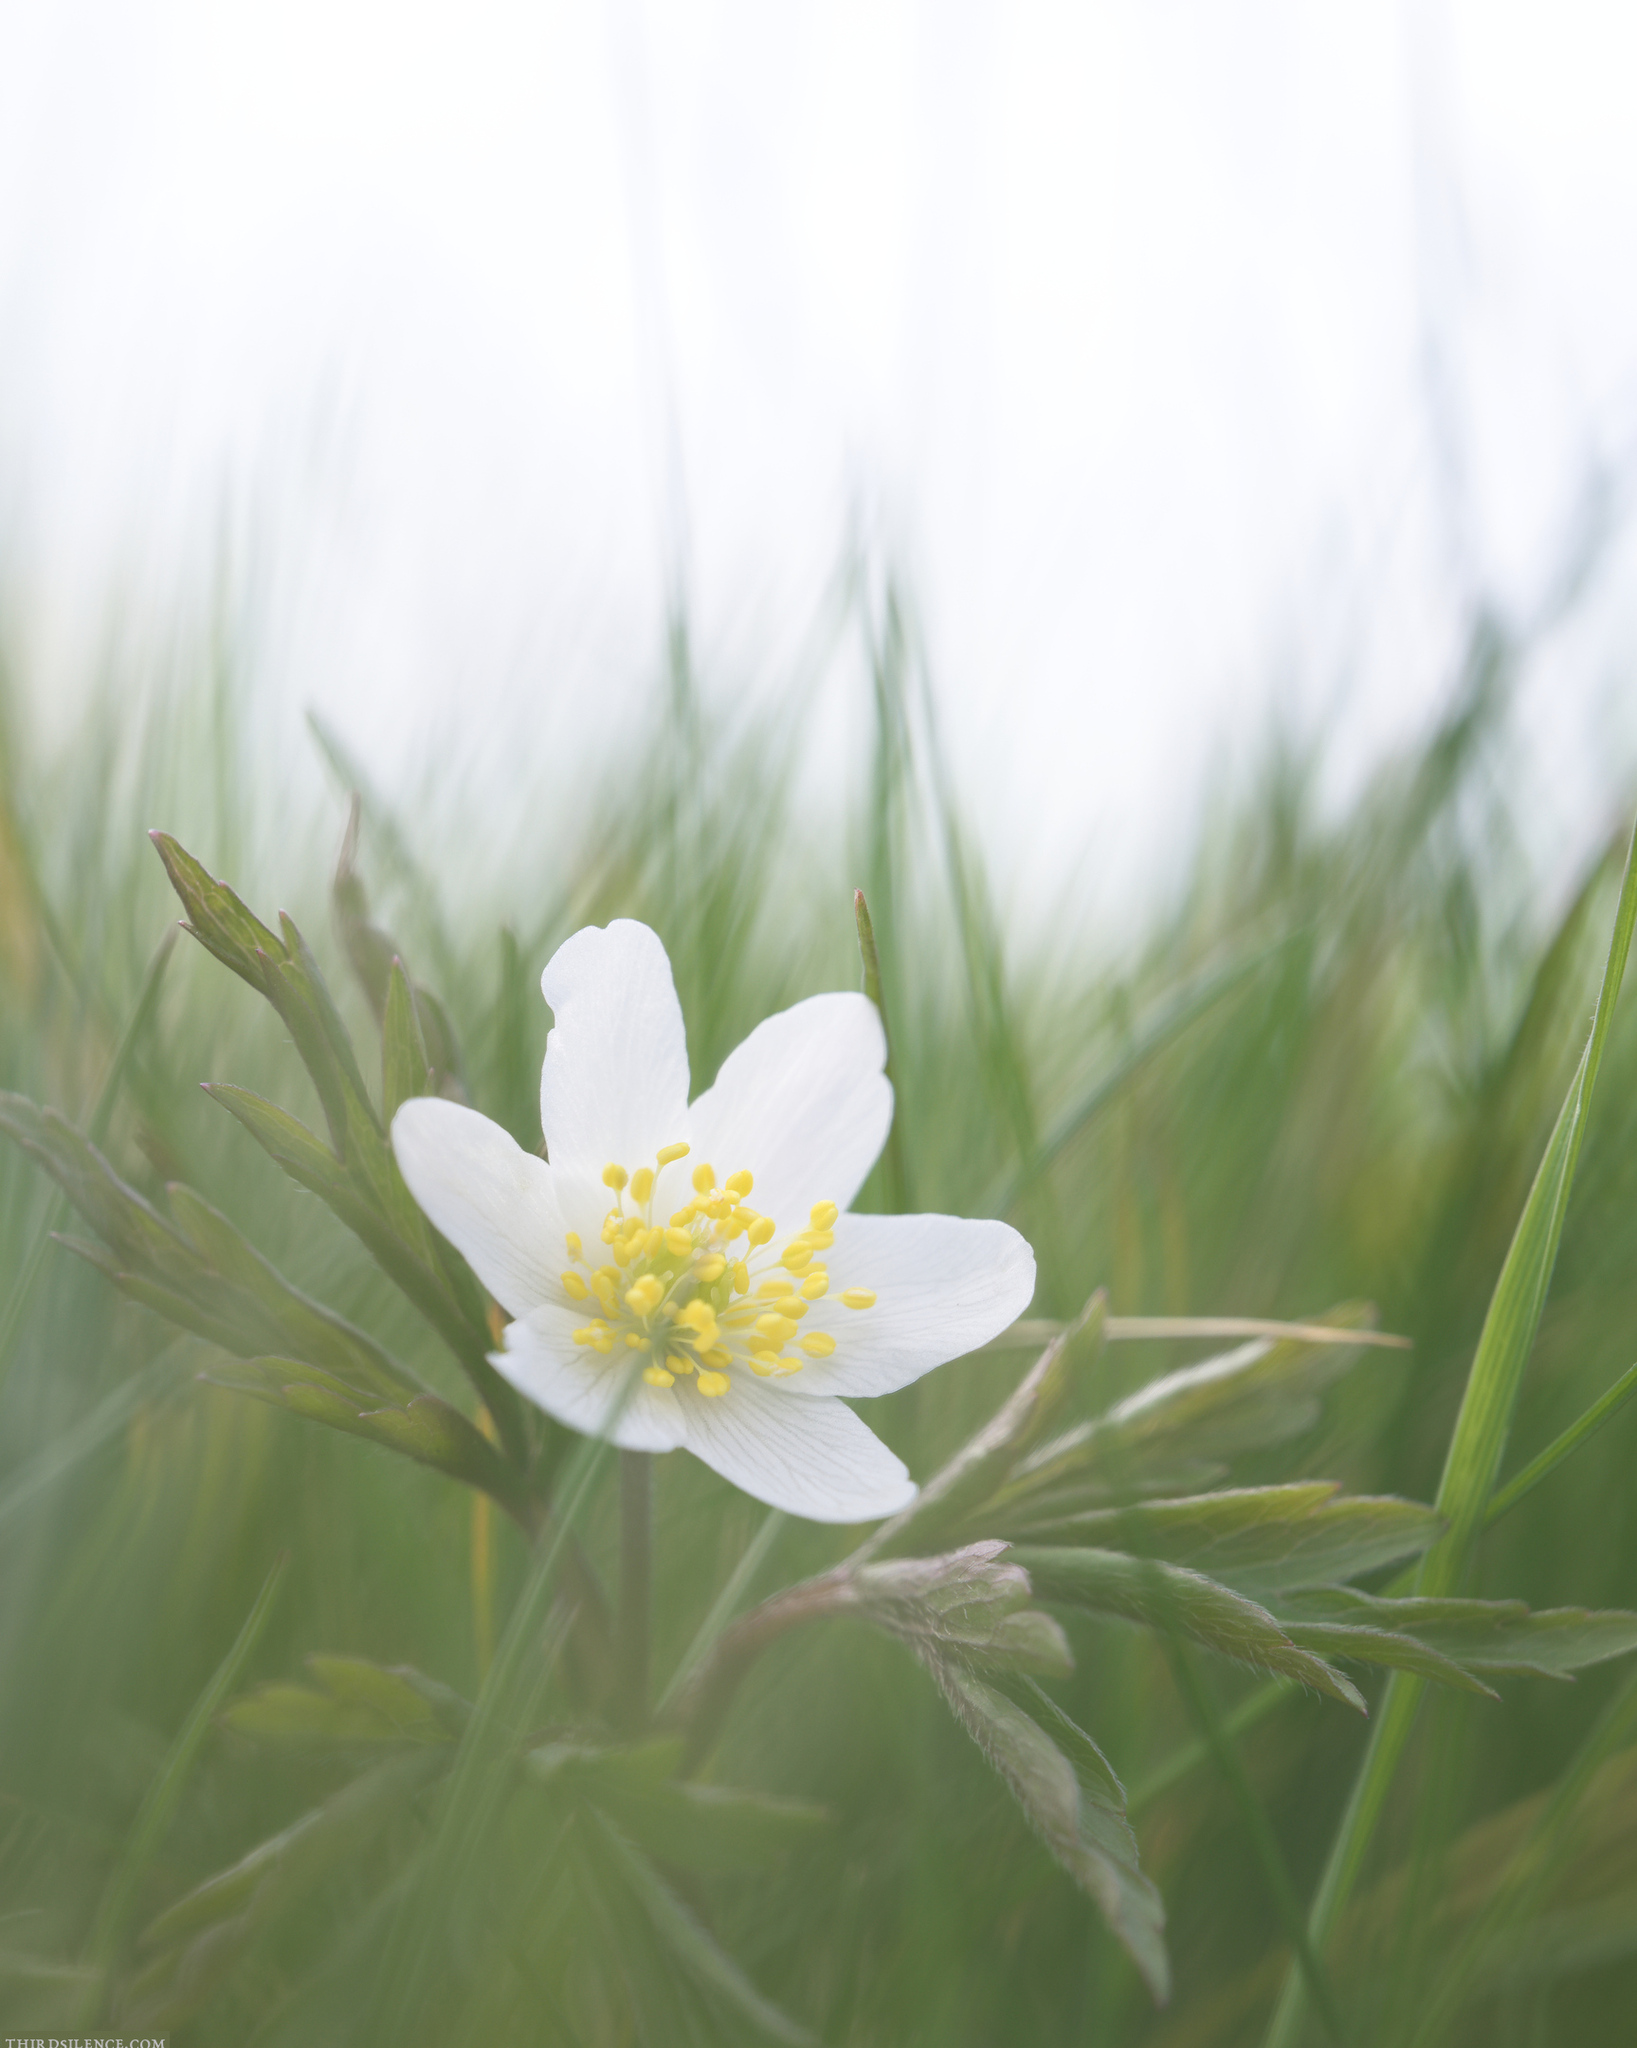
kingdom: Plantae
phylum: Tracheophyta
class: Magnoliopsida
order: Ranunculales
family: Ranunculaceae
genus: Anemone
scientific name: Anemone nemorosa
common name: Wood anemone
